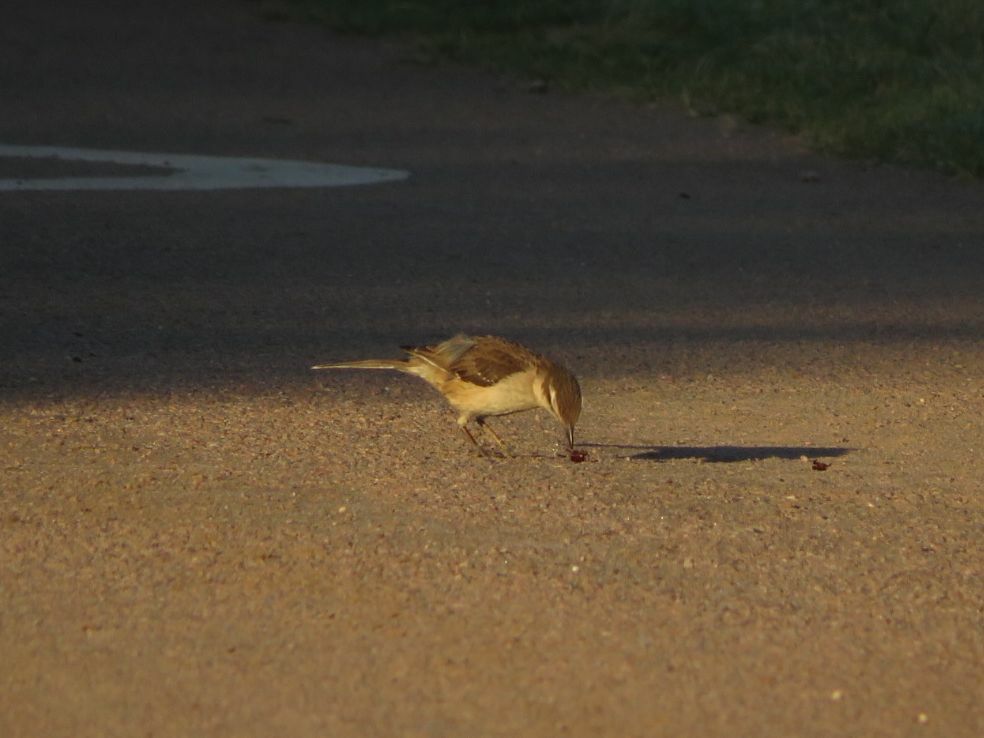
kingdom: Animalia
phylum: Chordata
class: Aves
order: Passeriformes
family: Mimidae
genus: Mimus
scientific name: Mimus saturninus
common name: Chalk-browed mockingbird
